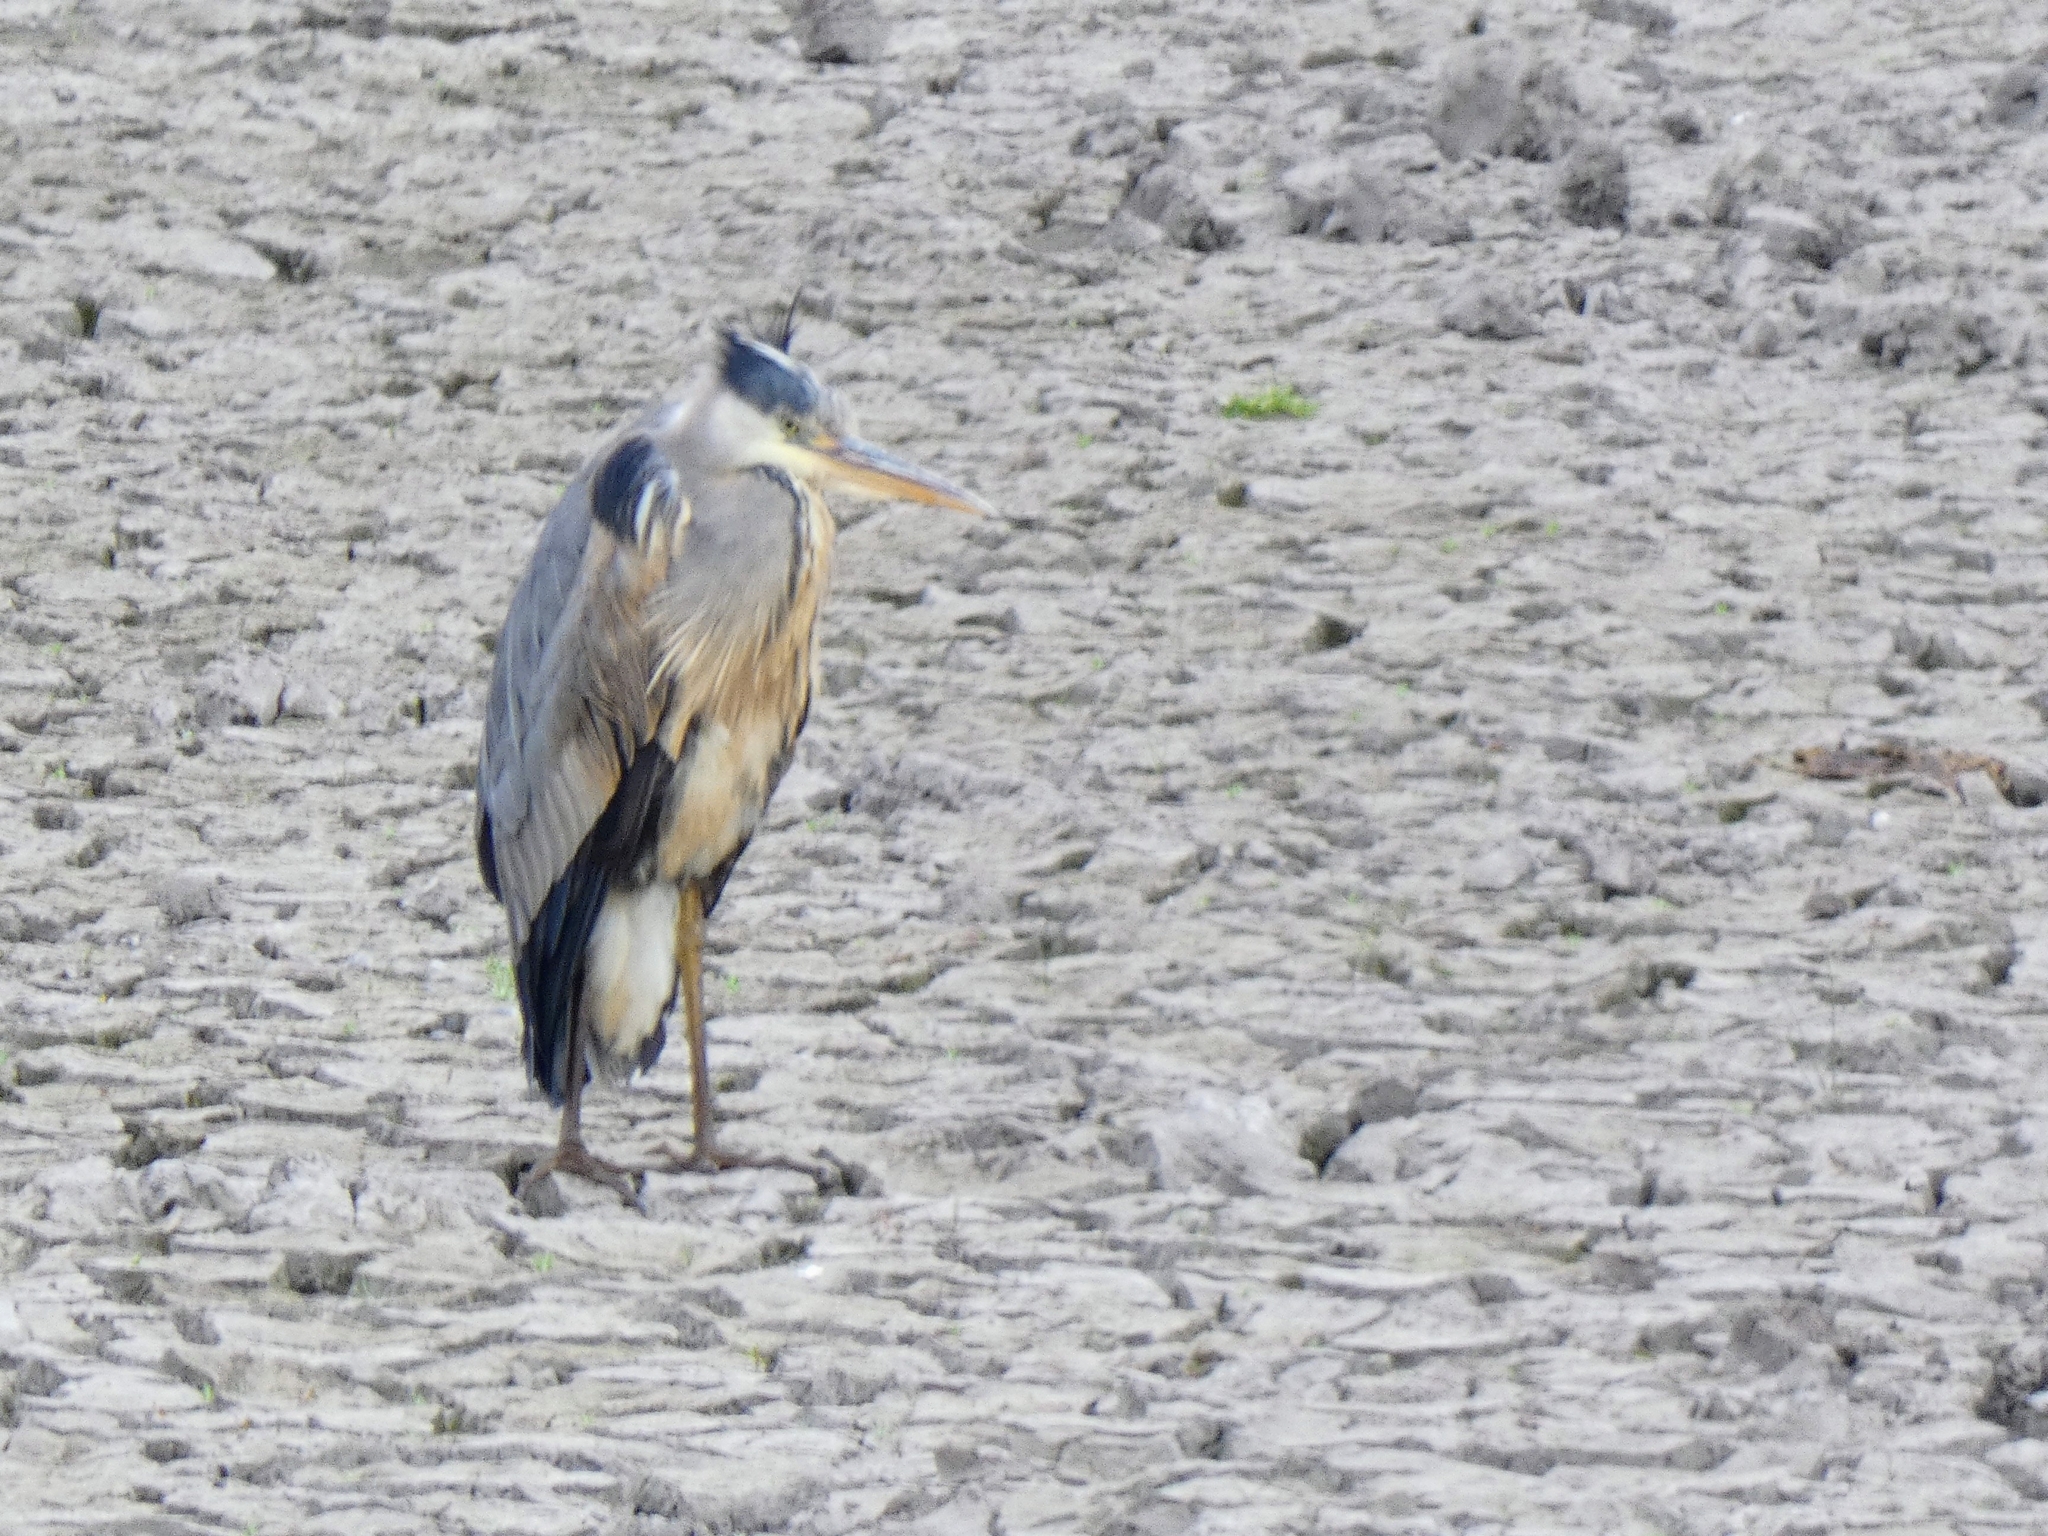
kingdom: Animalia
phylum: Chordata
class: Aves
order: Pelecaniformes
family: Ardeidae
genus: Ardea
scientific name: Ardea cinerea
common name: Grey heron
